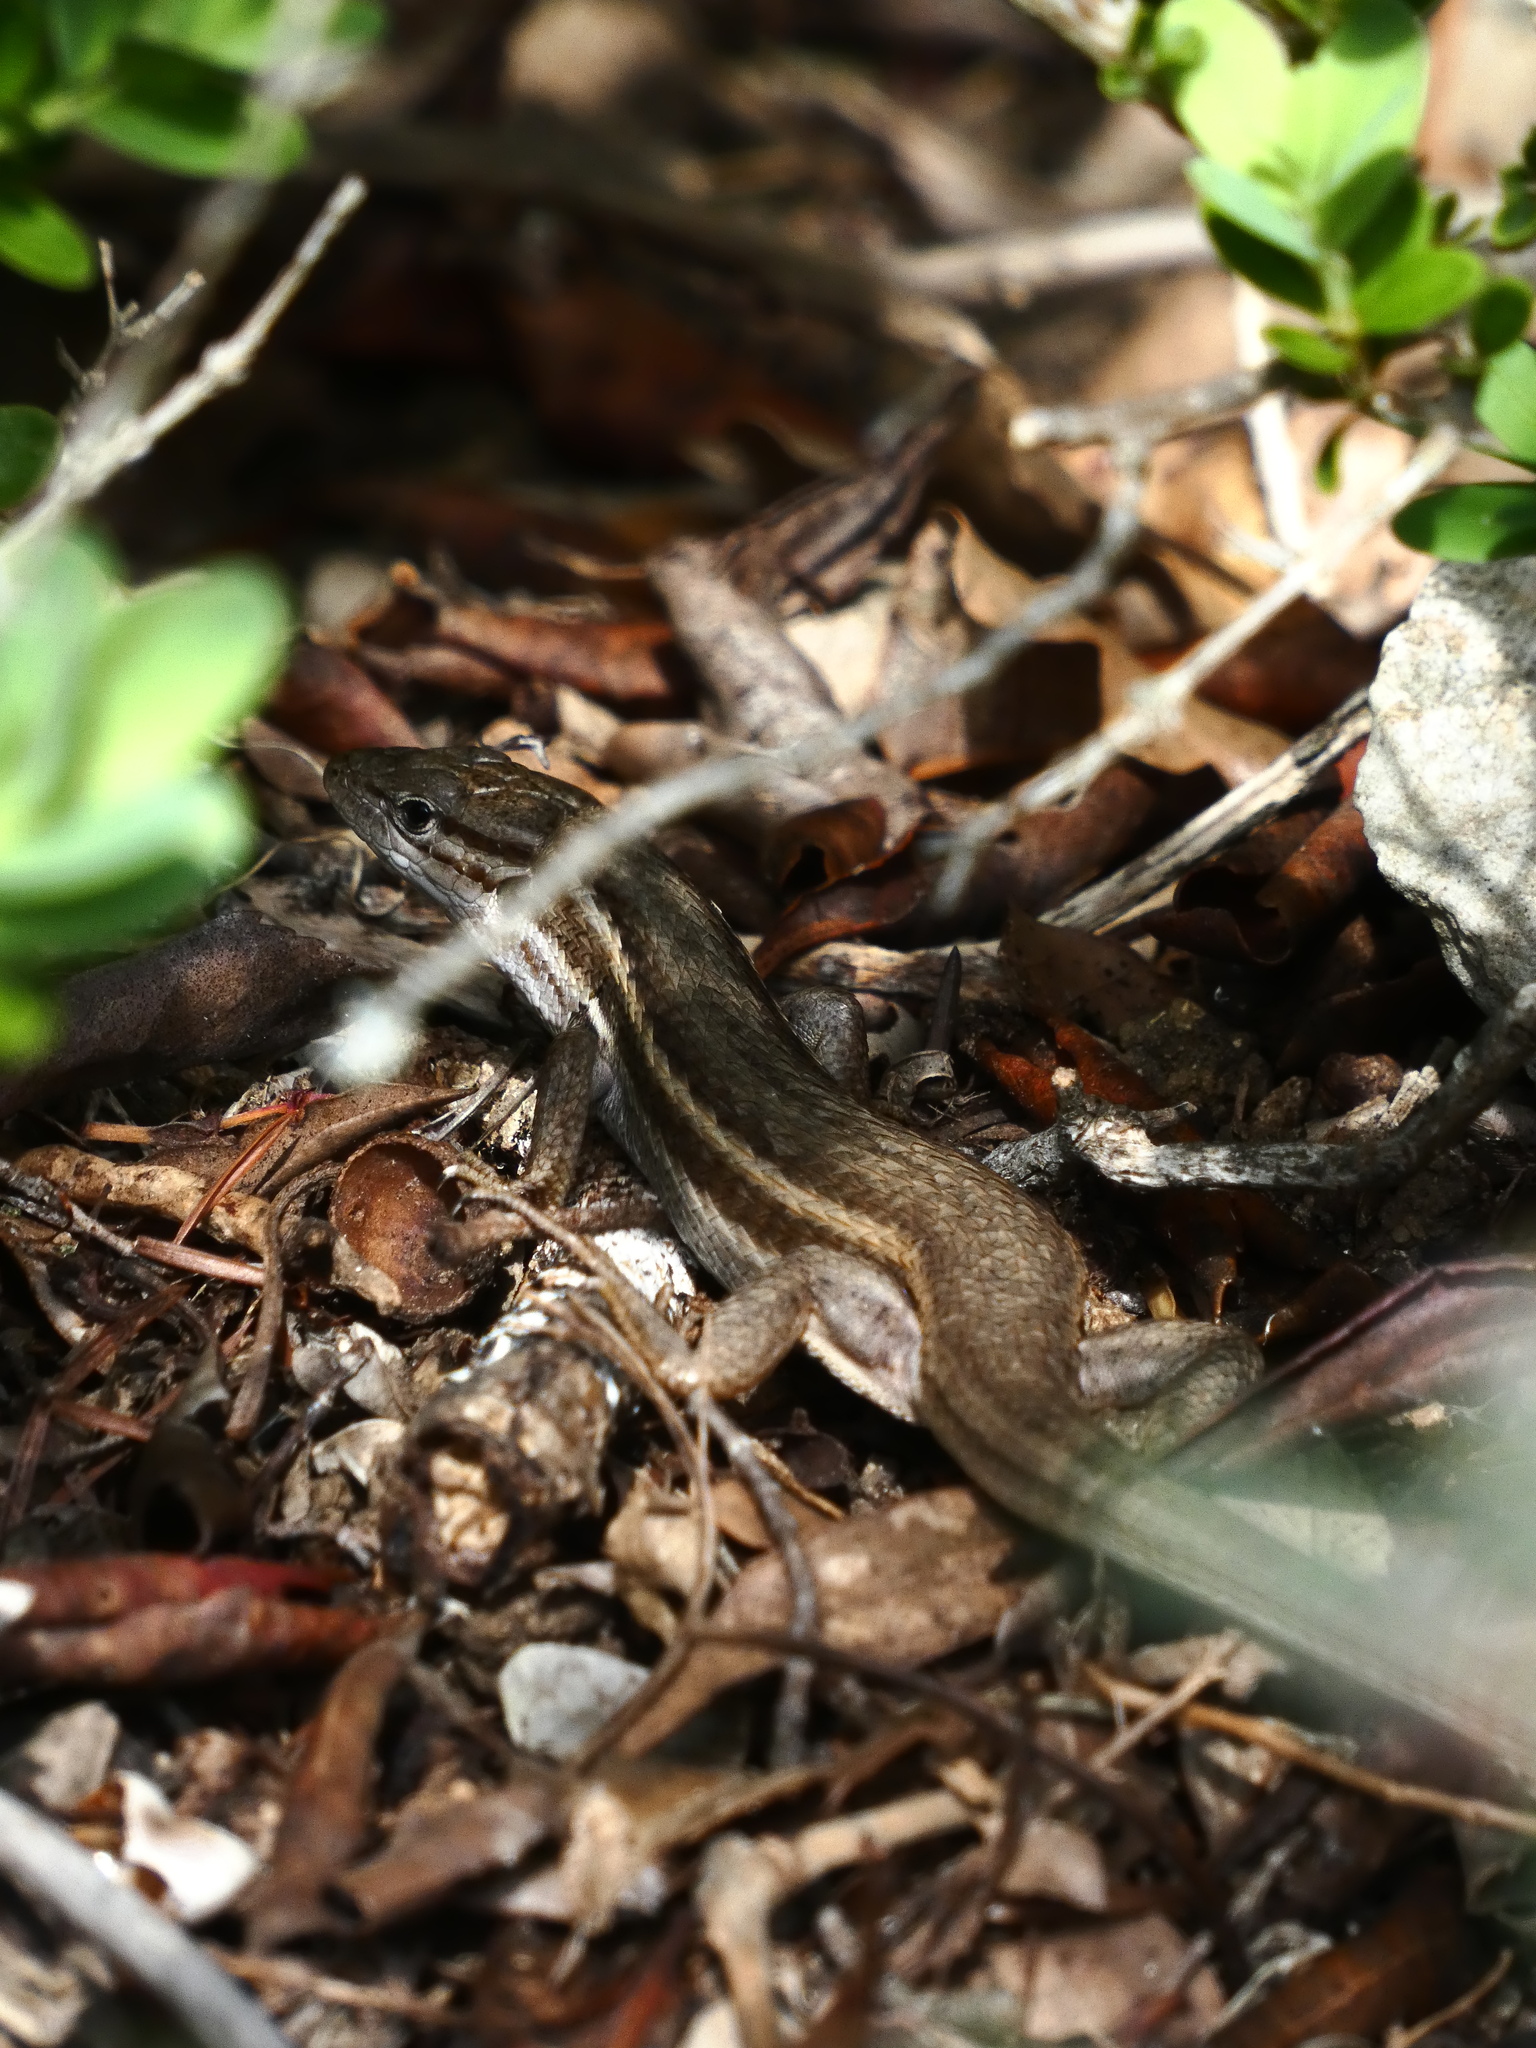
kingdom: Animalia
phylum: Chordata
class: Squamata
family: Lacertidae
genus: Psammodromus
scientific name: Psammodromus algirus
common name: Algerian psammodromus
